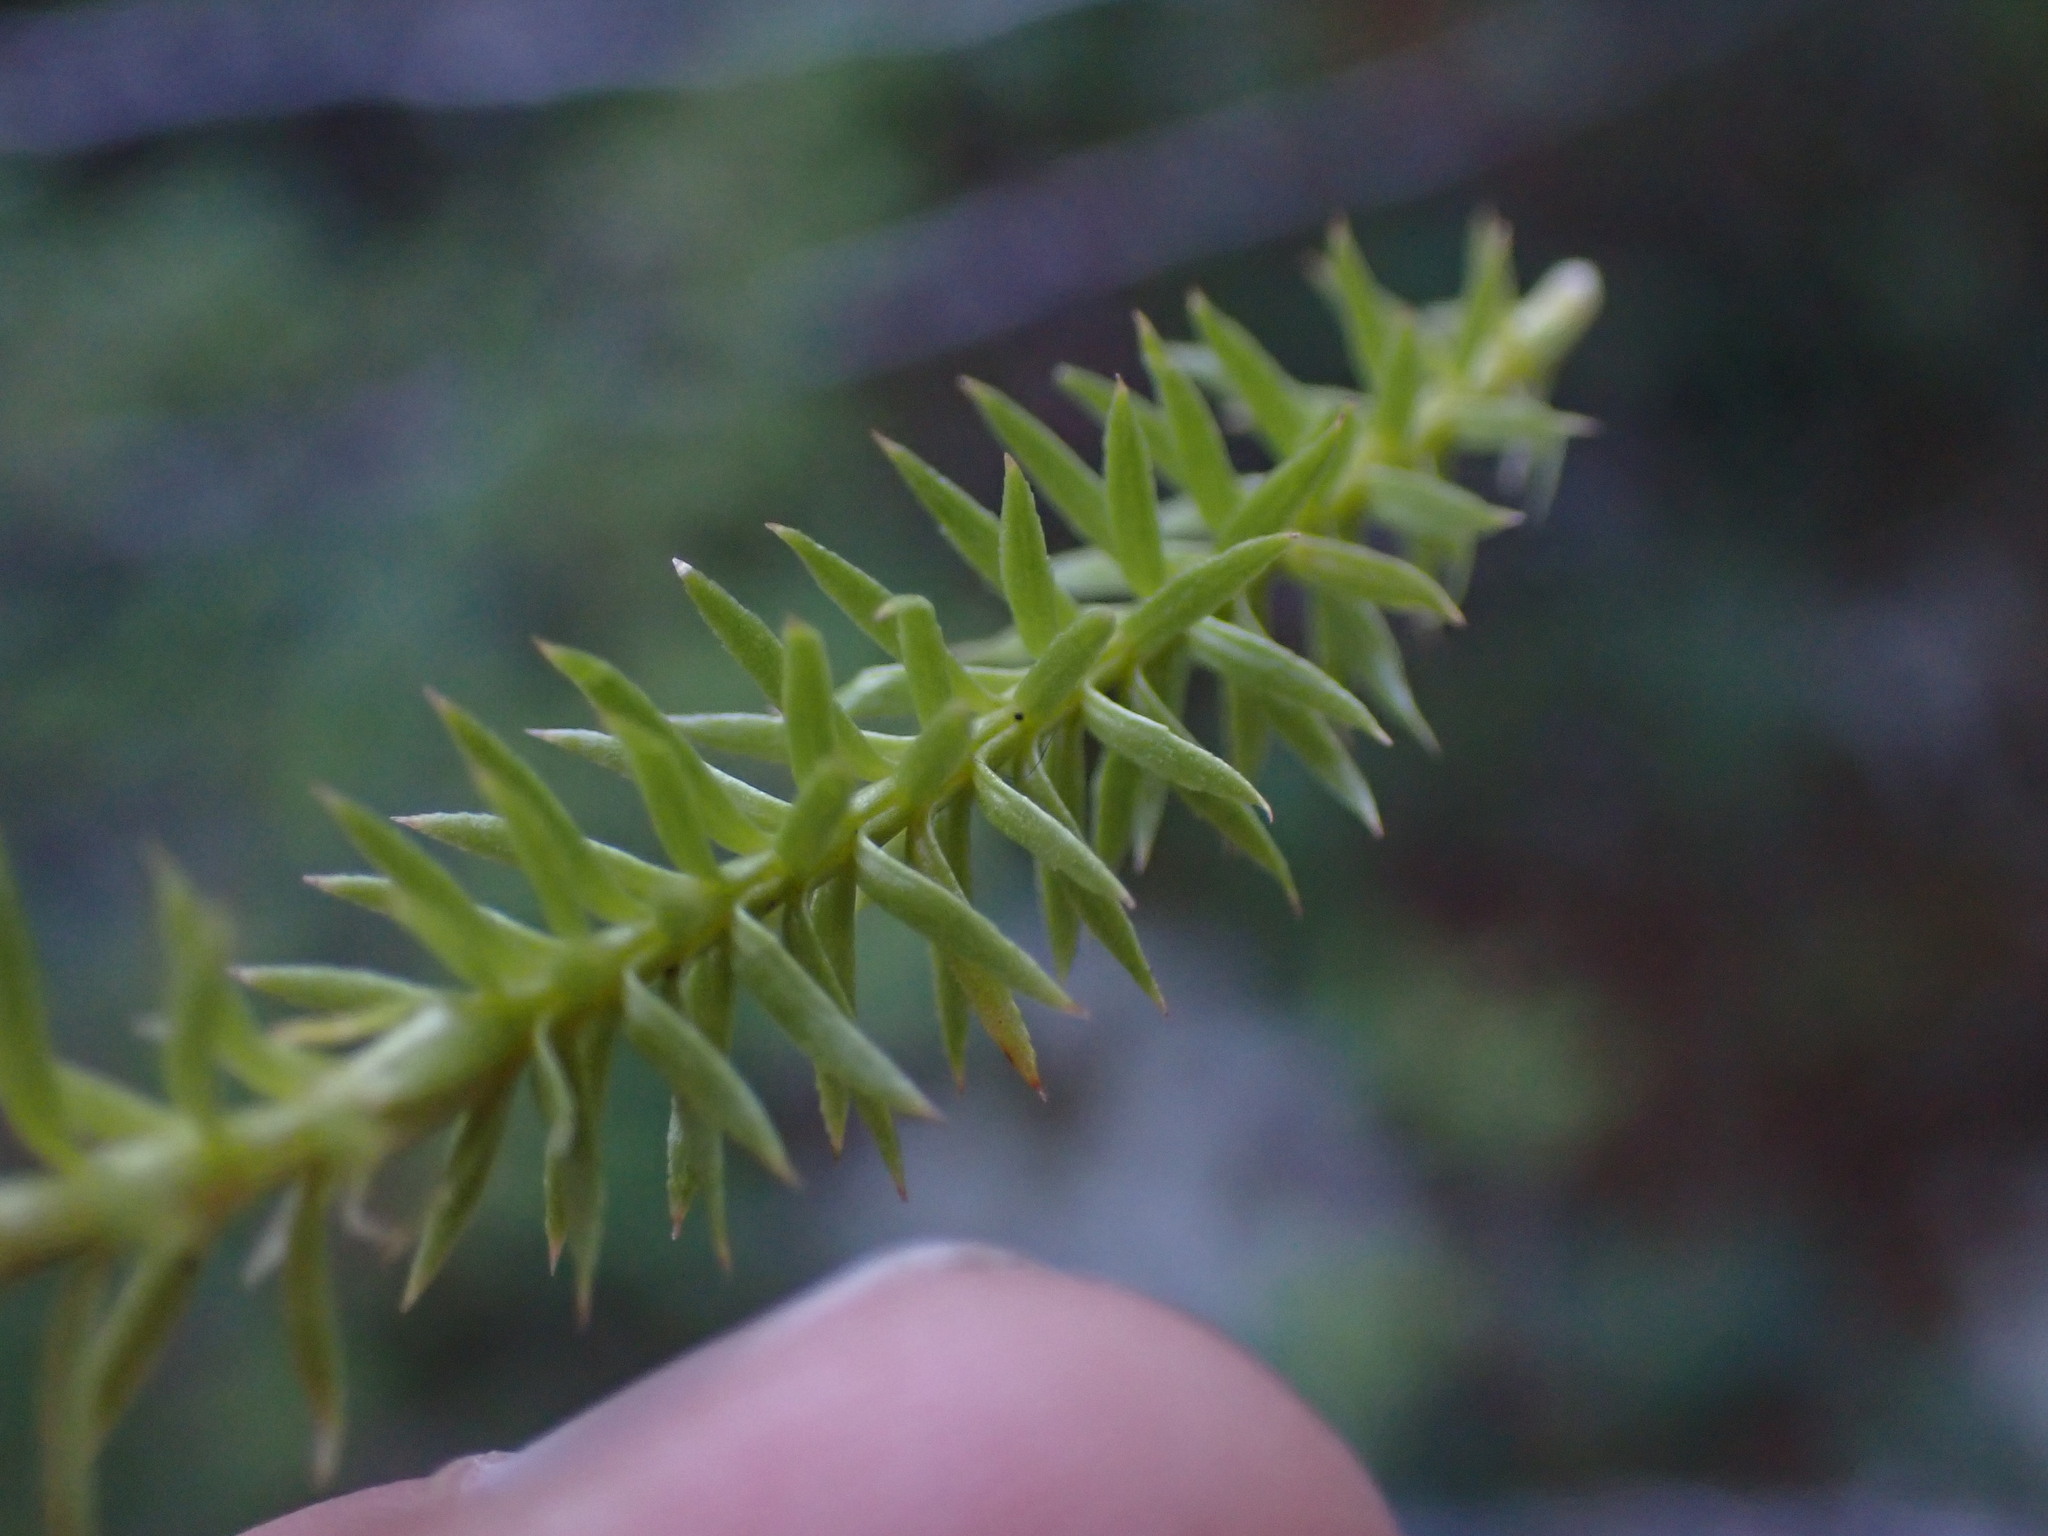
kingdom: Plantae
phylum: Tracheophyta
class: Lycopodiopsida
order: Lycopodiales
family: Lycopodiaceae
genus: Spinulum
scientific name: Spinulum annotinum
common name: Interrupted club-moss
